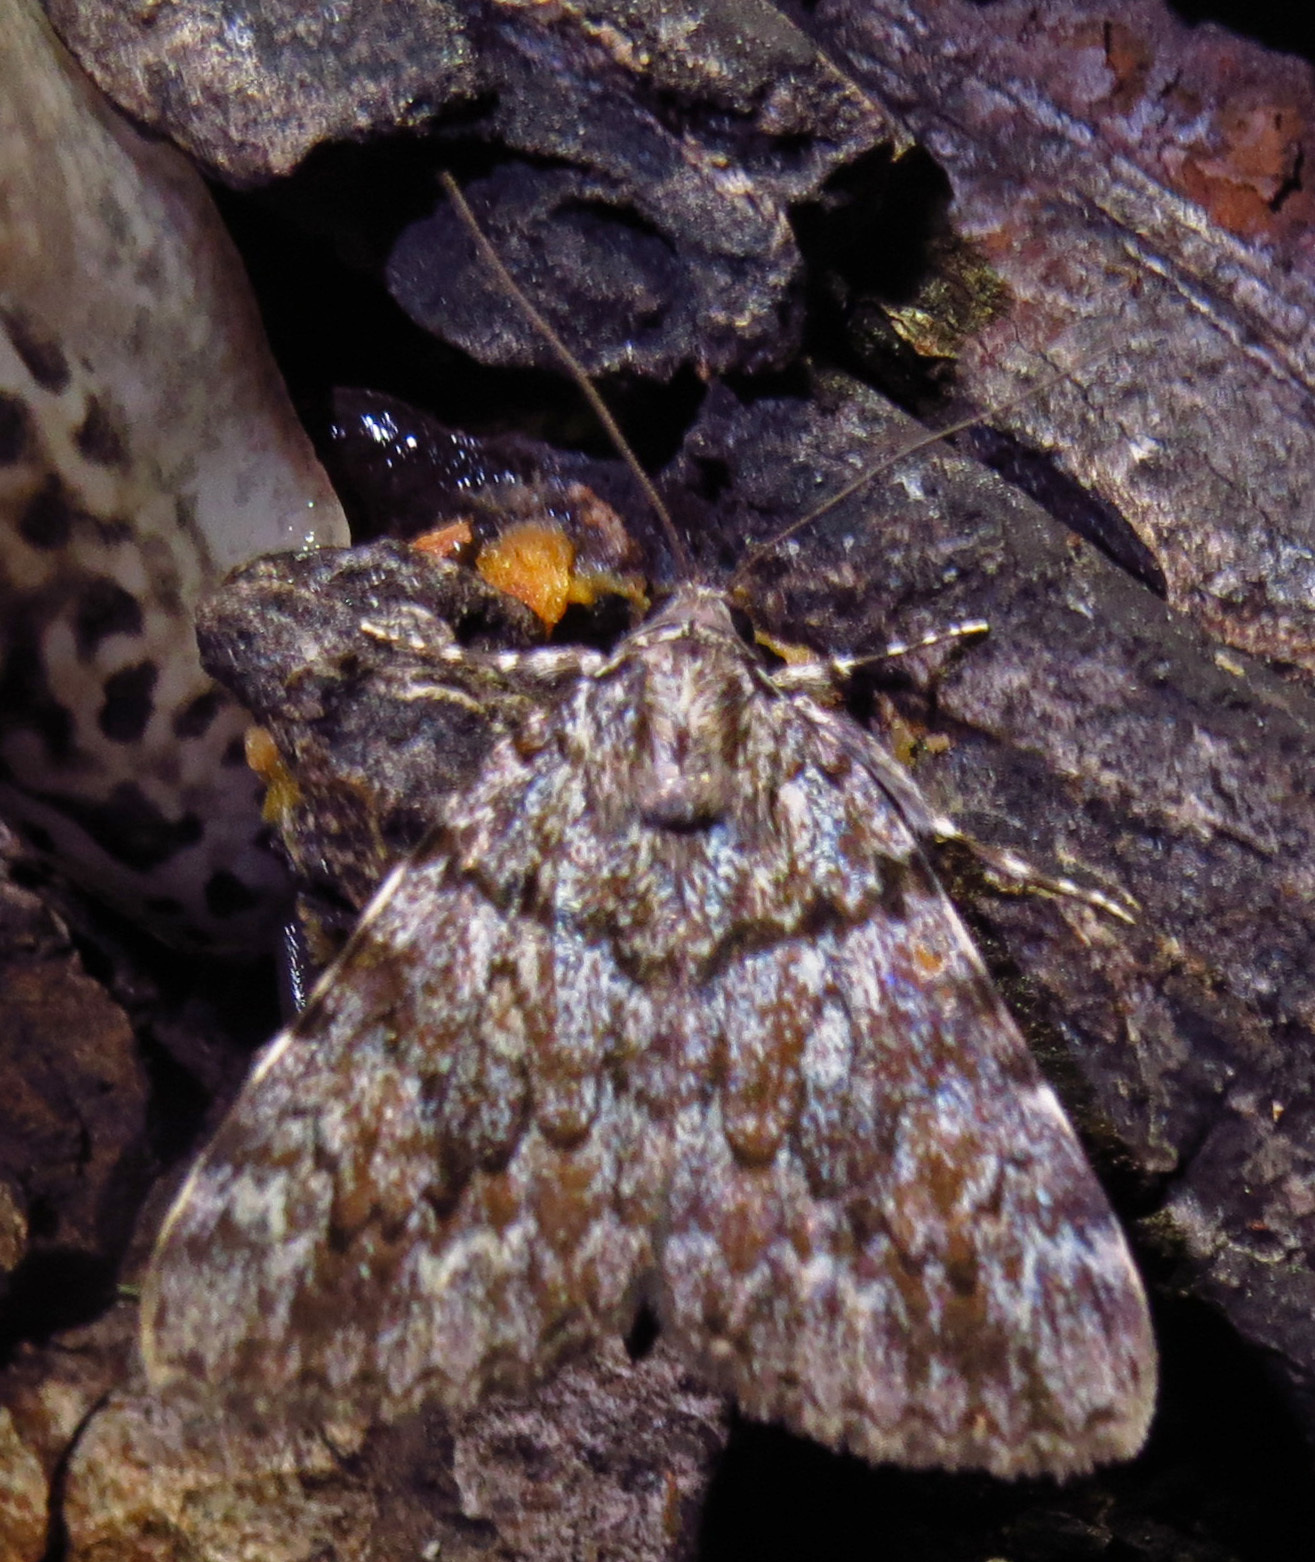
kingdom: Animalia
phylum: Arthropoda
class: Insecta
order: Lepidoptera
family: Erebidae
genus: Catocala
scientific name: Catocala lineella
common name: Little lined underwing
